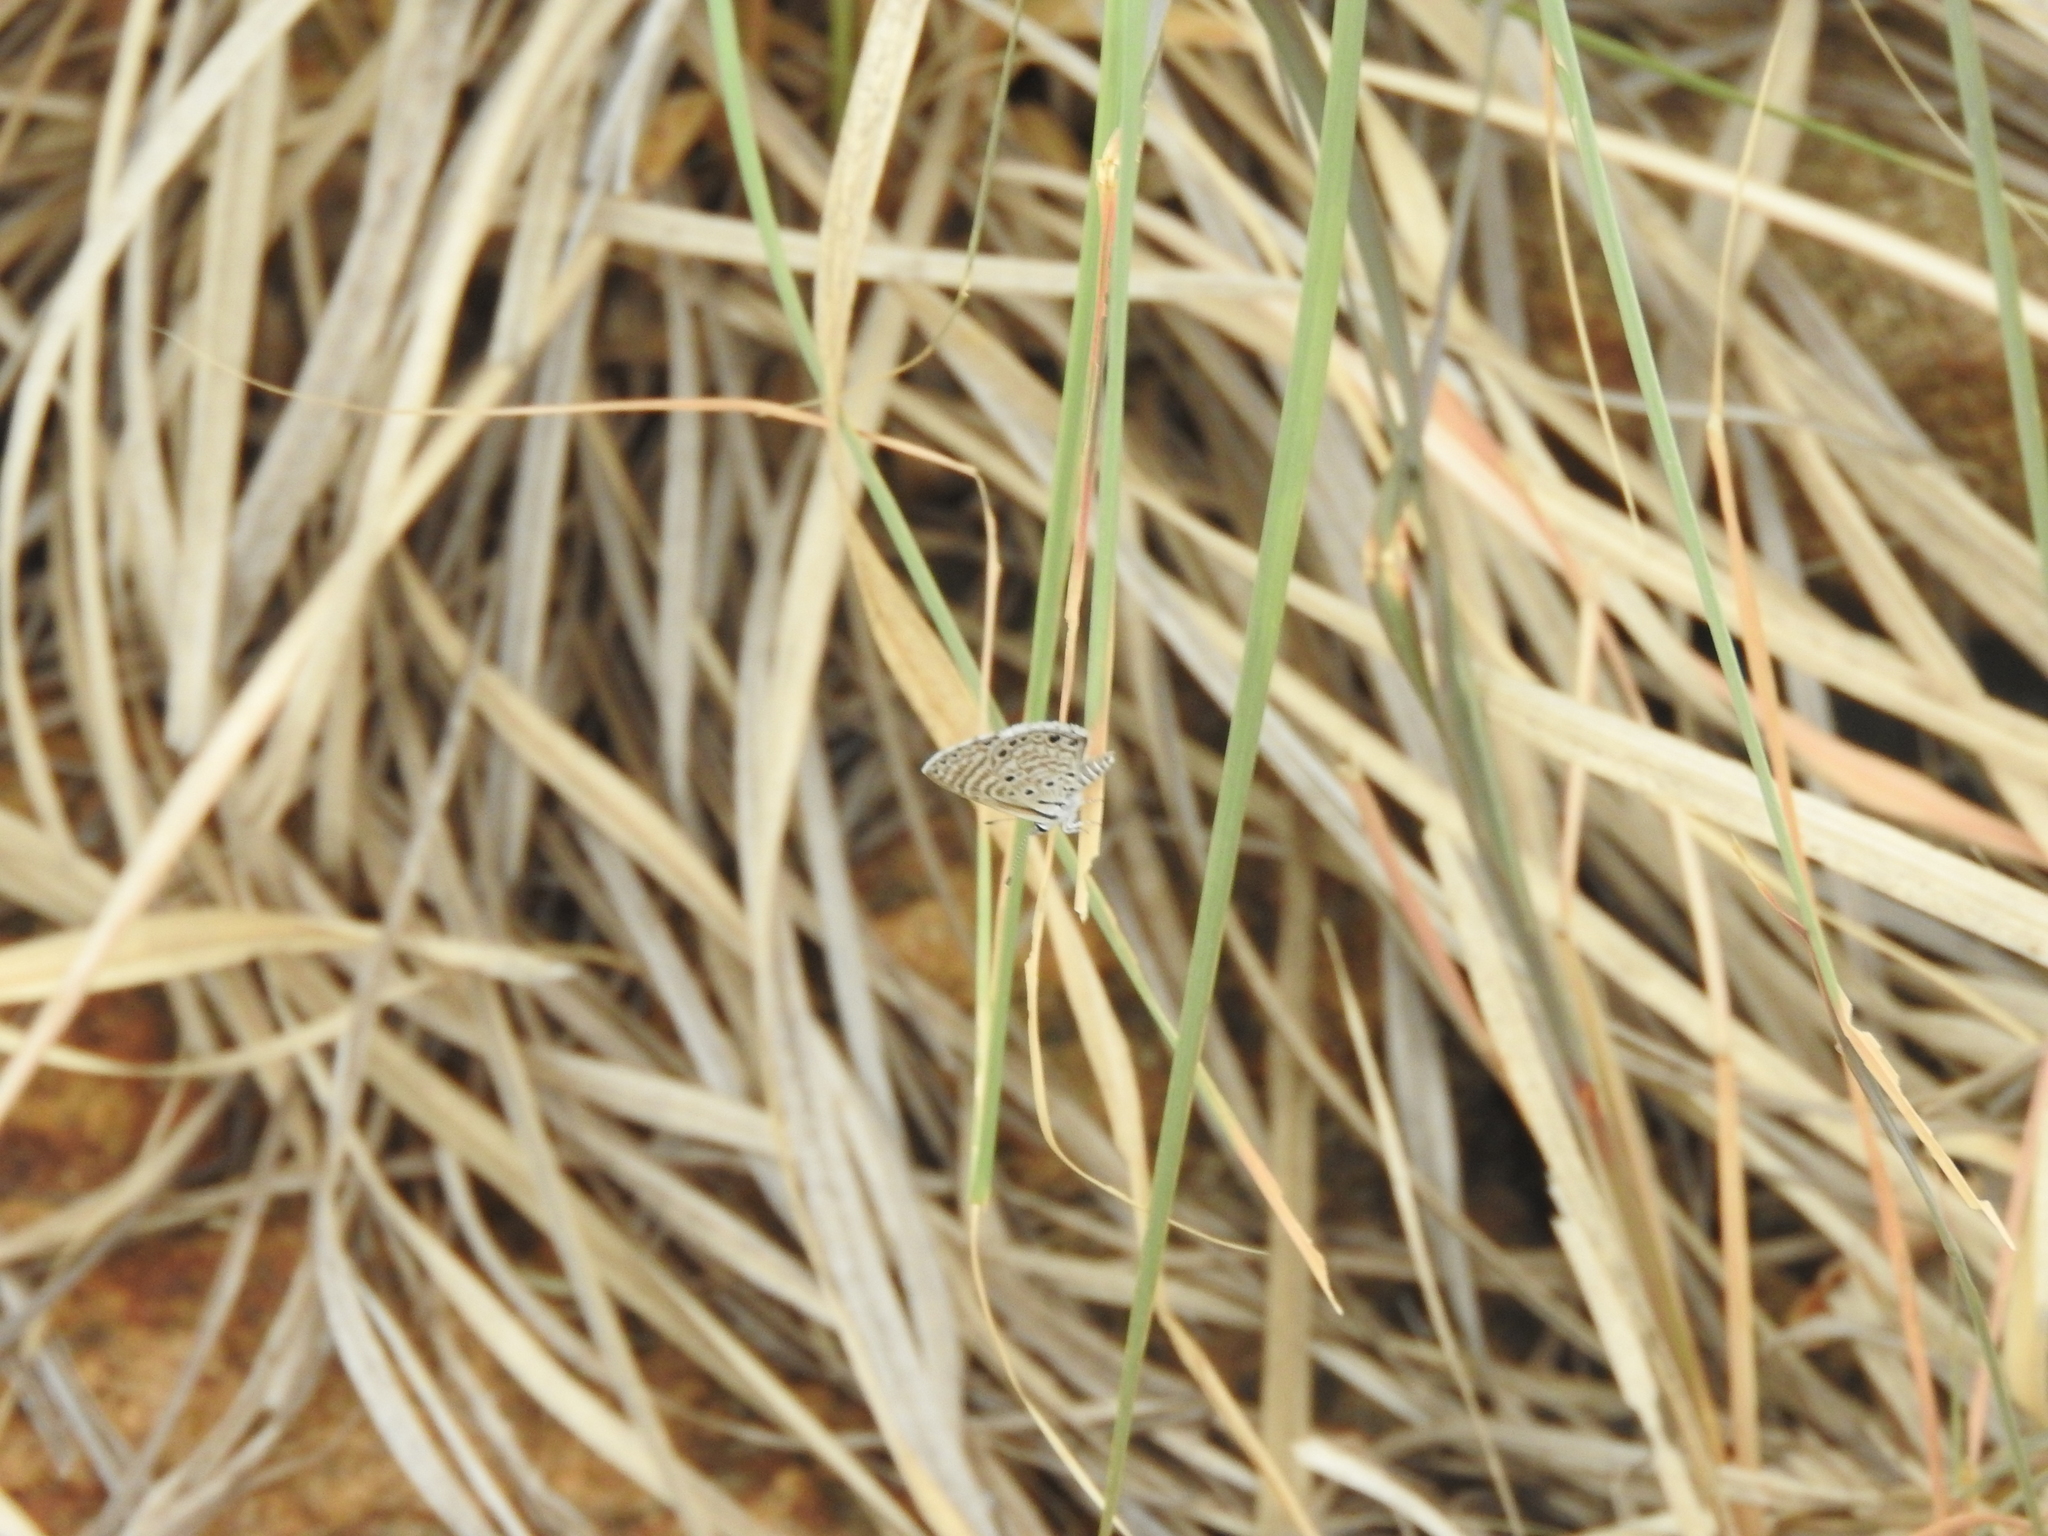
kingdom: Animalia
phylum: Arthropoda
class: Insecta
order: Lepidoptera
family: Lycaenidae
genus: Azanus
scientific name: Azanus jesous
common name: African babul blue
